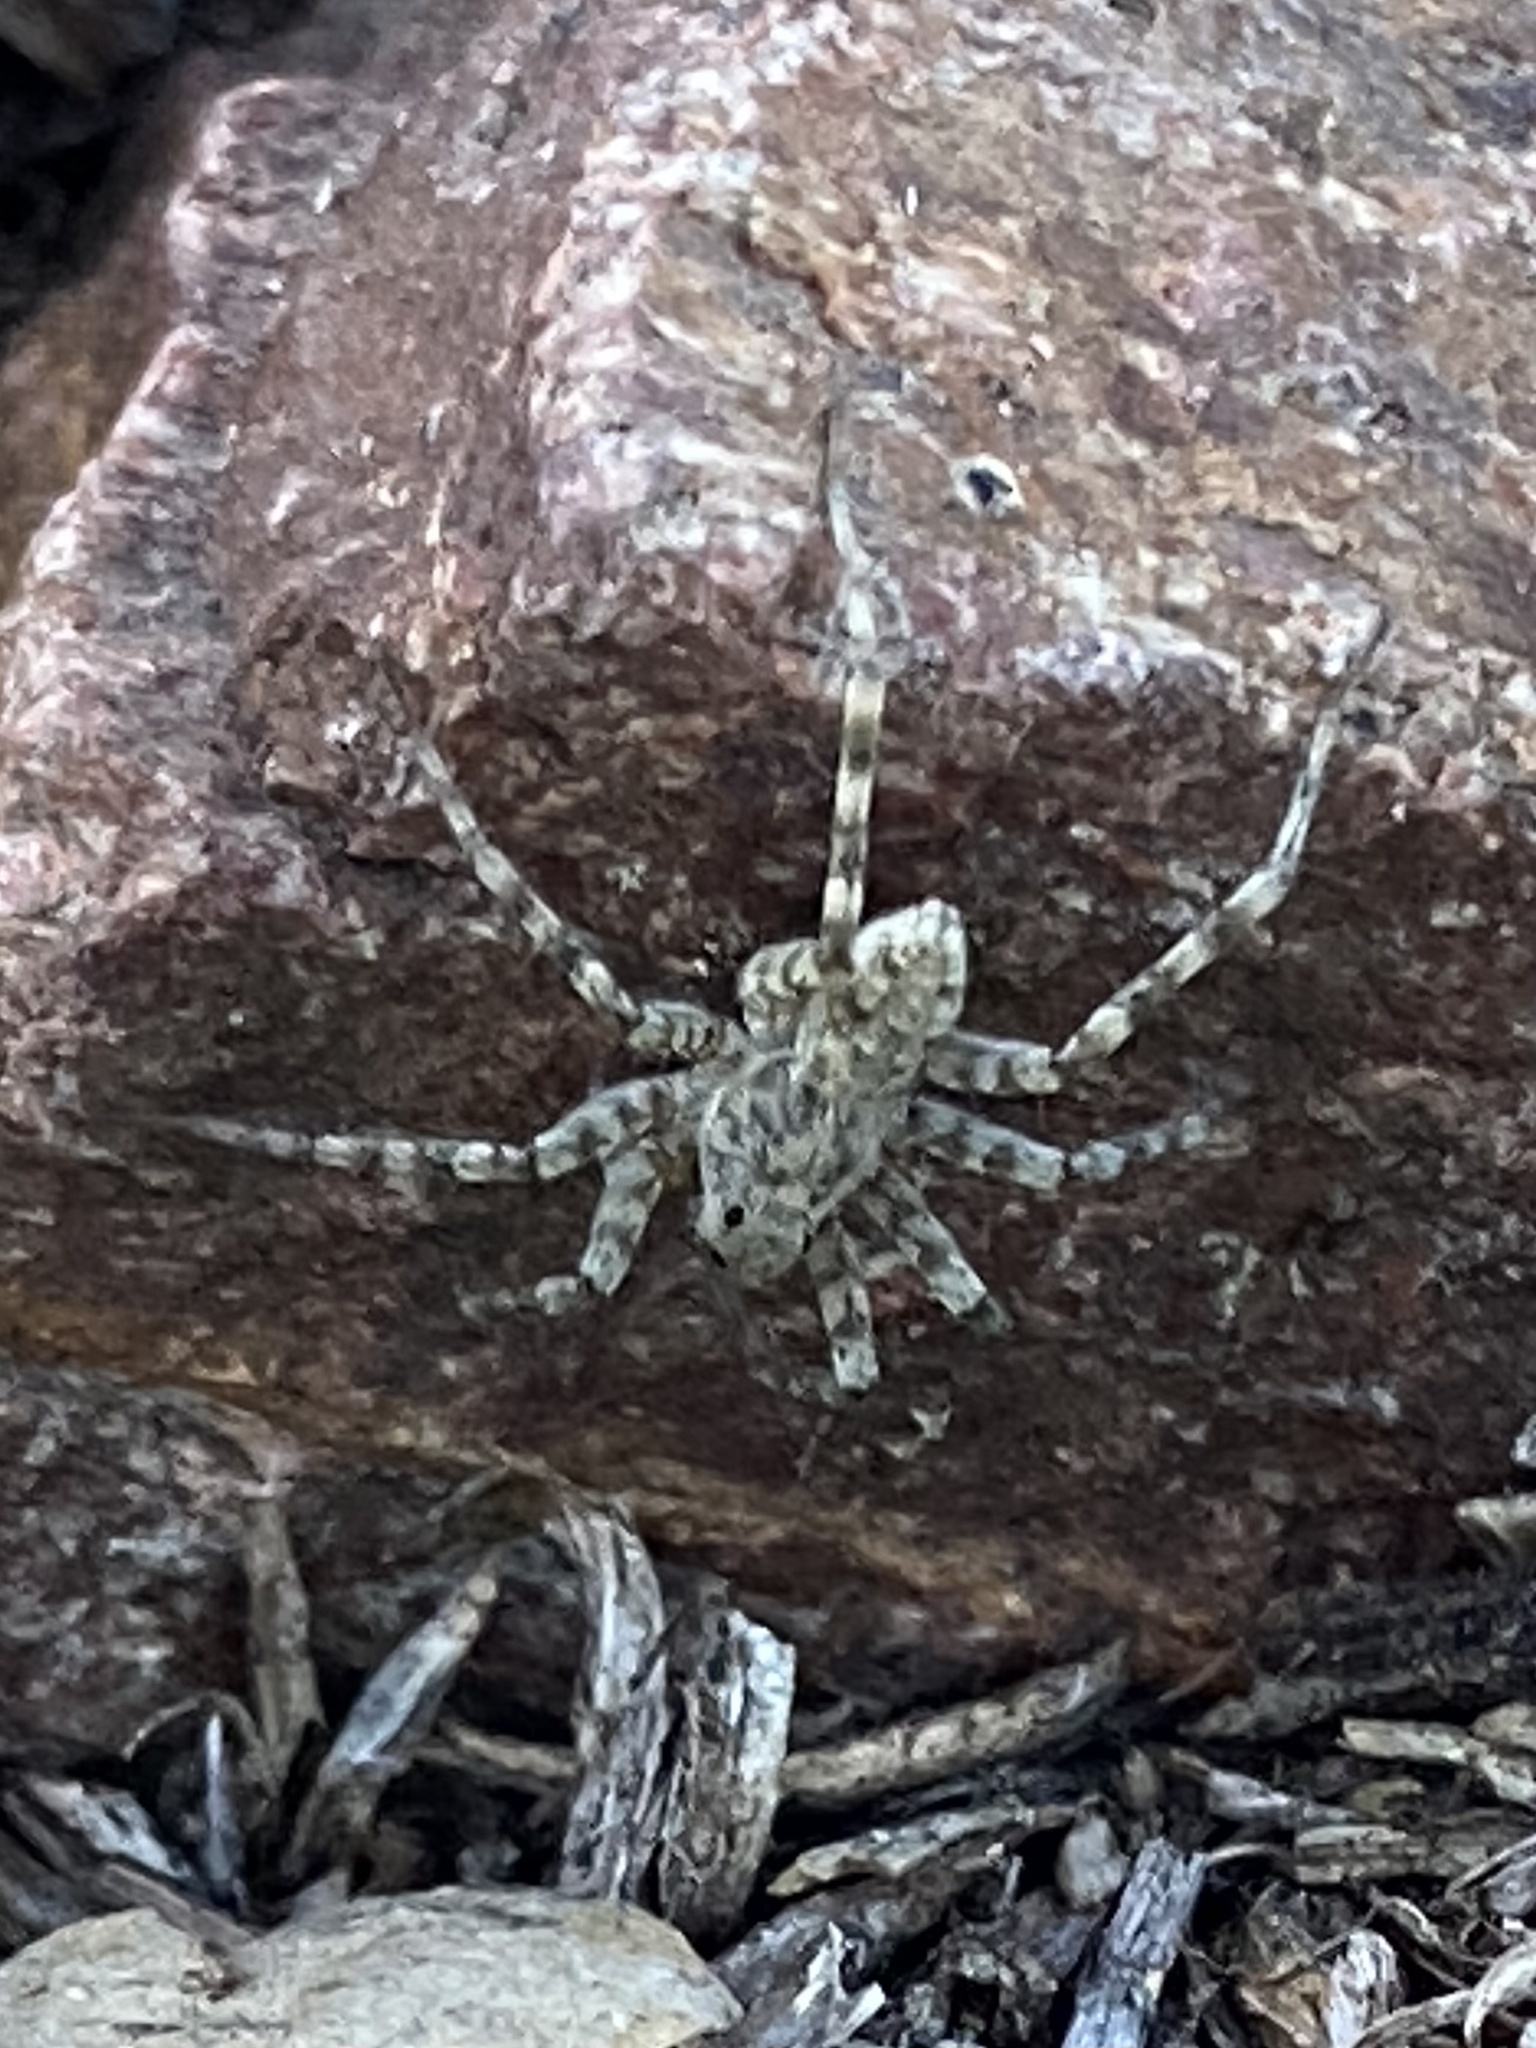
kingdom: Animalia
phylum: Arthropoda
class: Arachnida
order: Araneae
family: Lycosidae
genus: Pardosa
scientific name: Pardosa mercurialis
